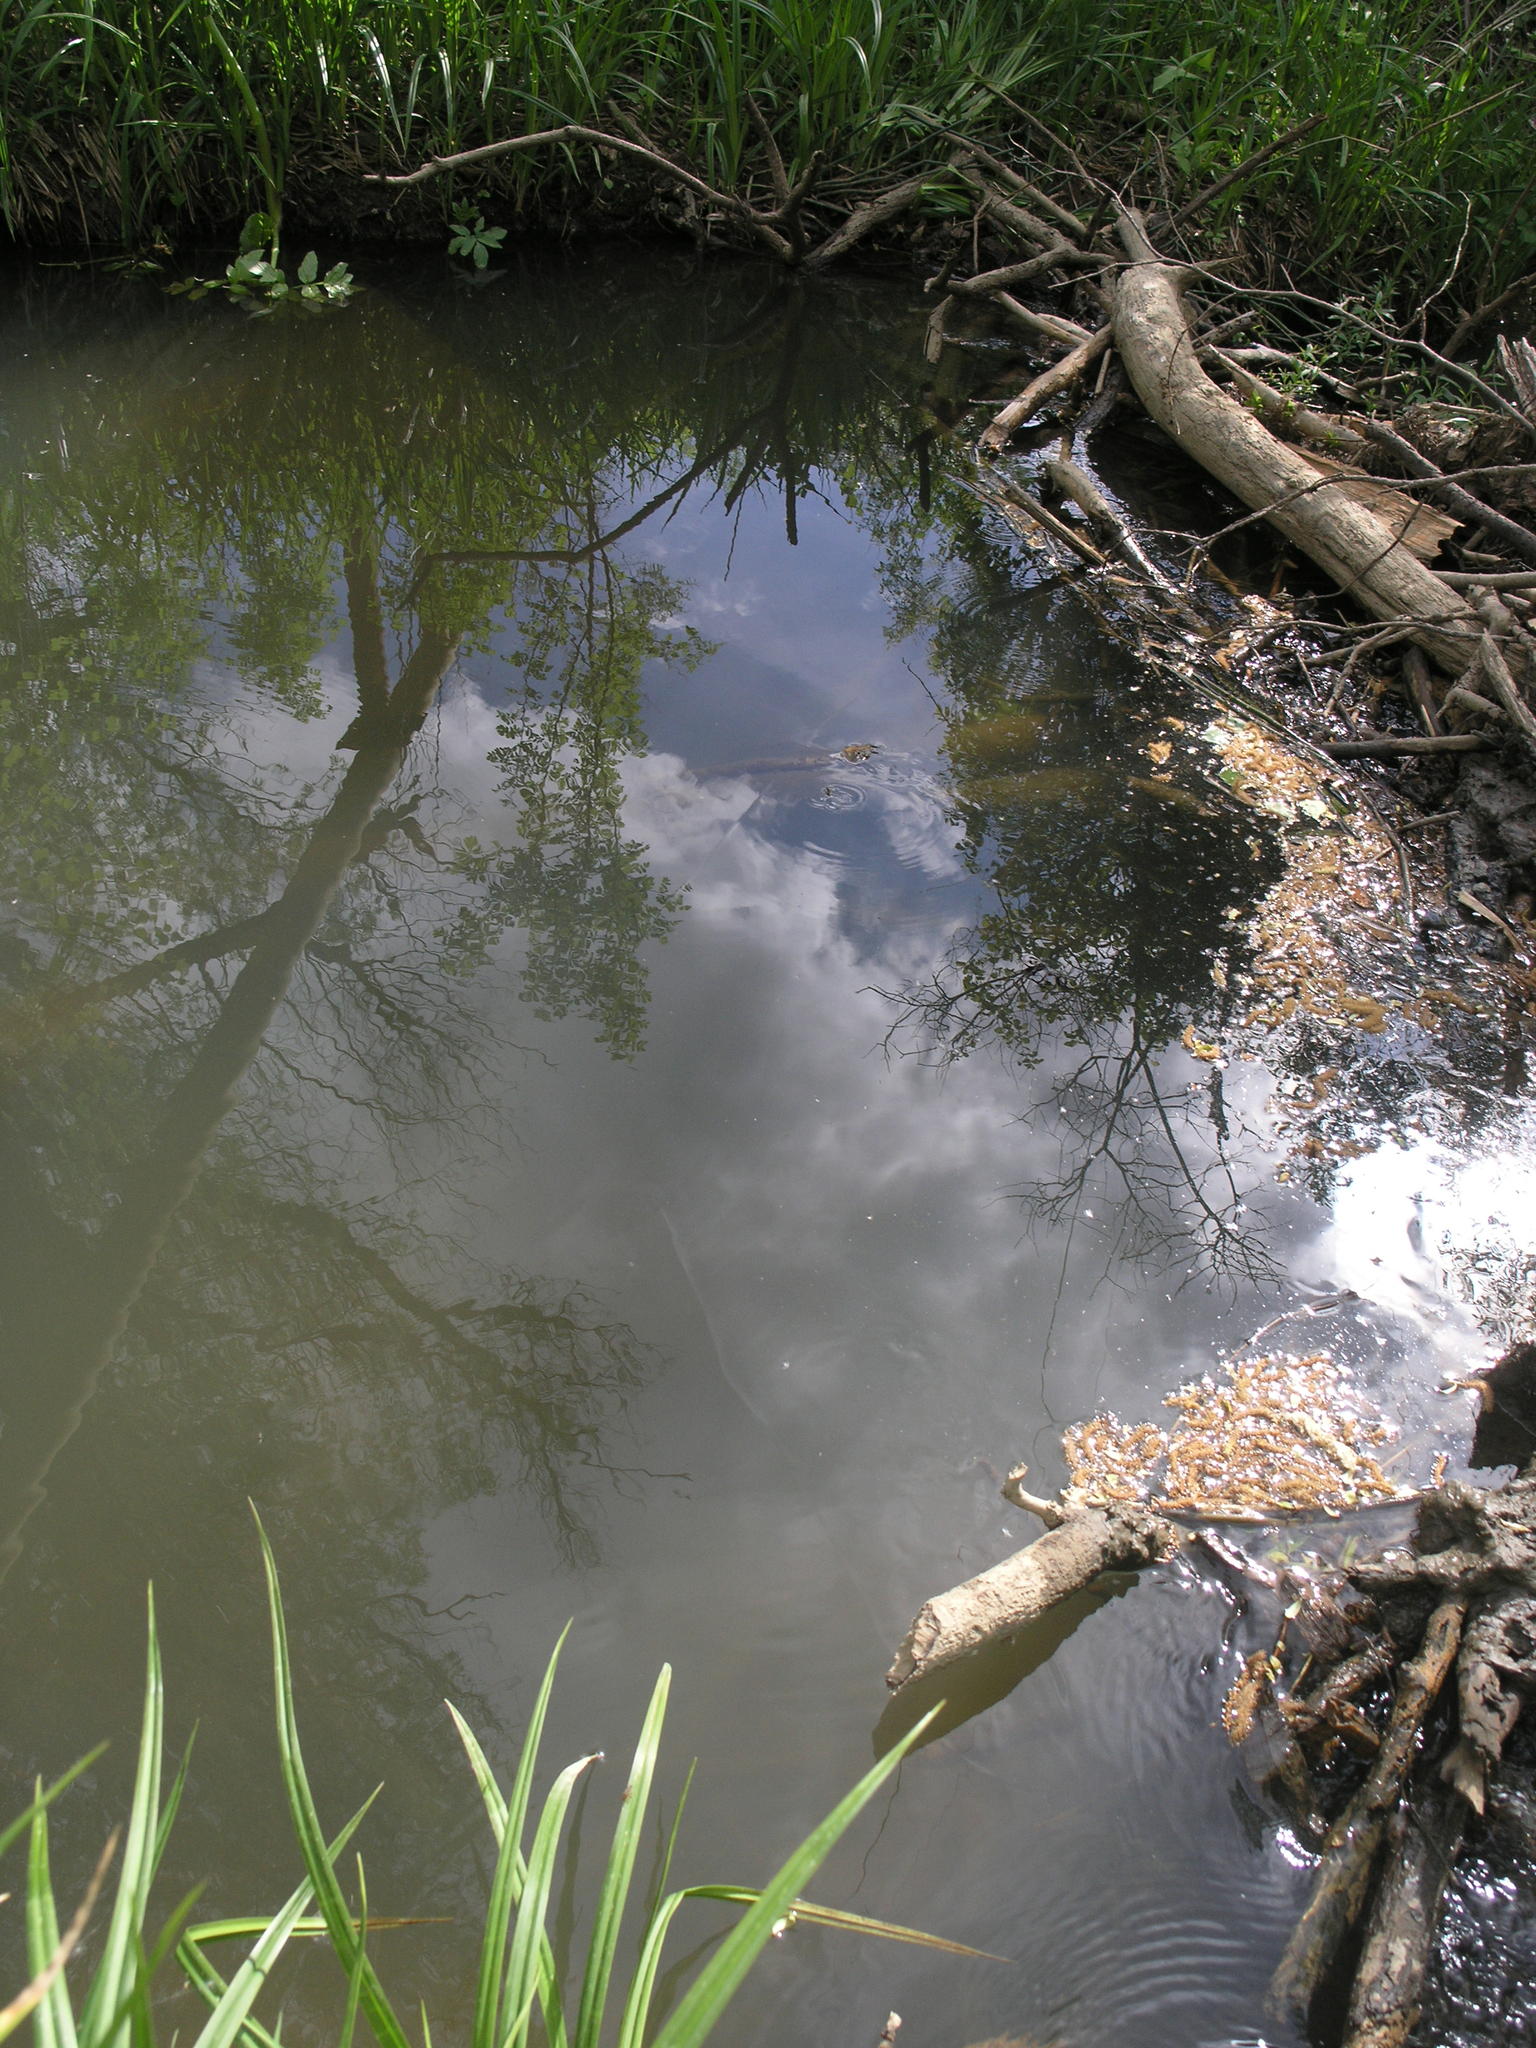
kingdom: Animalia
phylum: Chordata
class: Mammalia
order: Rodentia
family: Castoridae
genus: Castor
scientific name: Castor fiber
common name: Eurasian beaver
